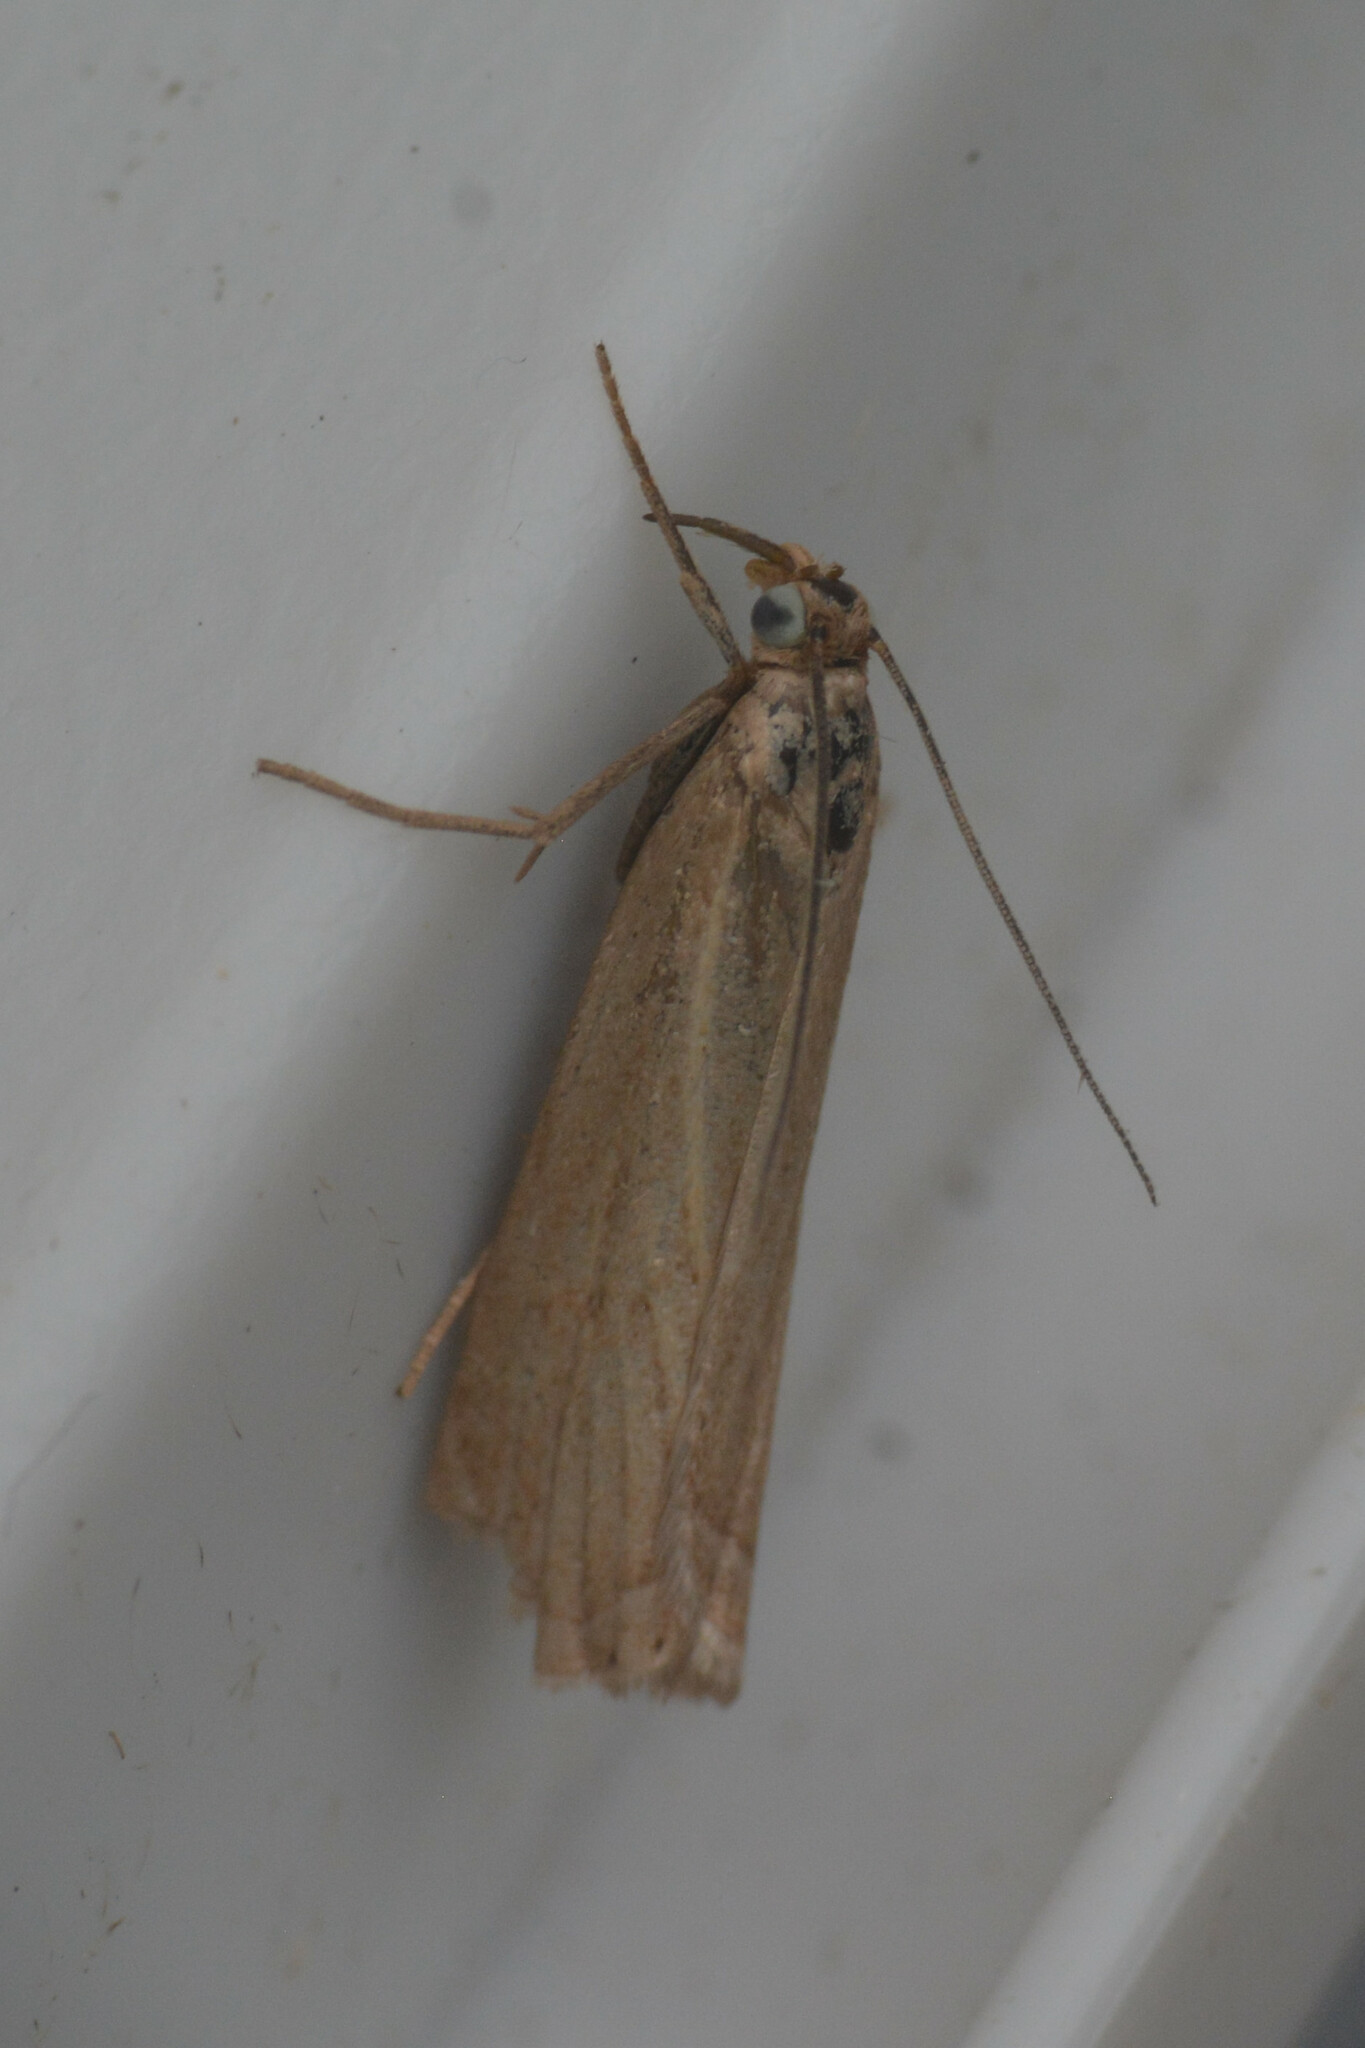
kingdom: Animalia
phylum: Arthropoda
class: Insecta
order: Lepidoptera
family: Crambidae
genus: Chrysoteuchia
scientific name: Chrysoteuchia culmella
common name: Garden grass-veneer
